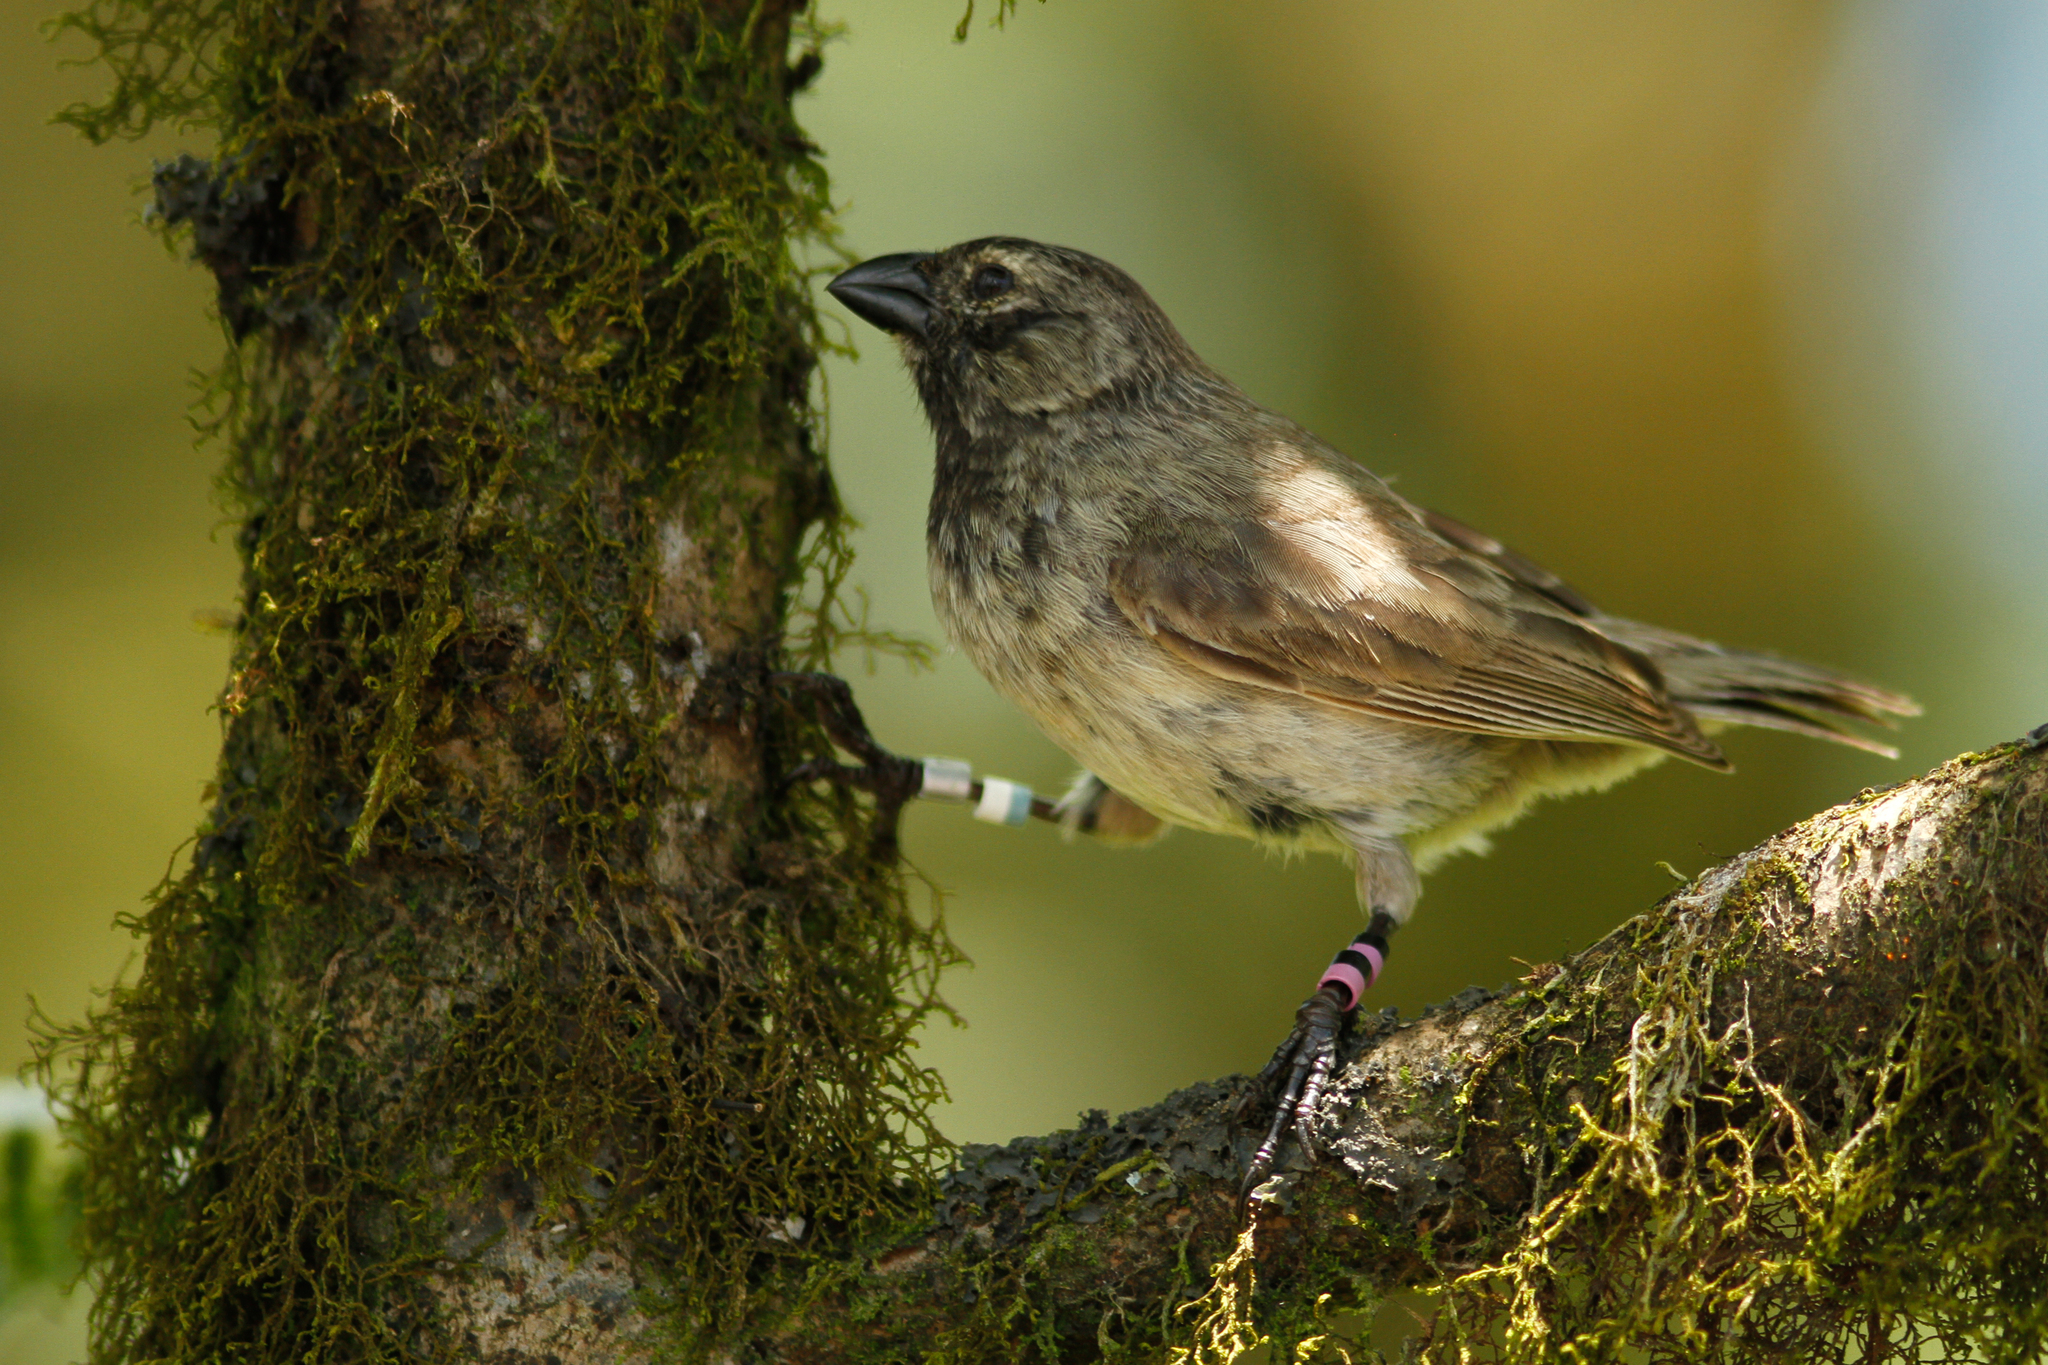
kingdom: Animalia
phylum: Chordata
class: Aves
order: Passeriformes
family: Thraupidae
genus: Camarhynchus
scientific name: Camarhynchus psittacula
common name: Large tree finch
